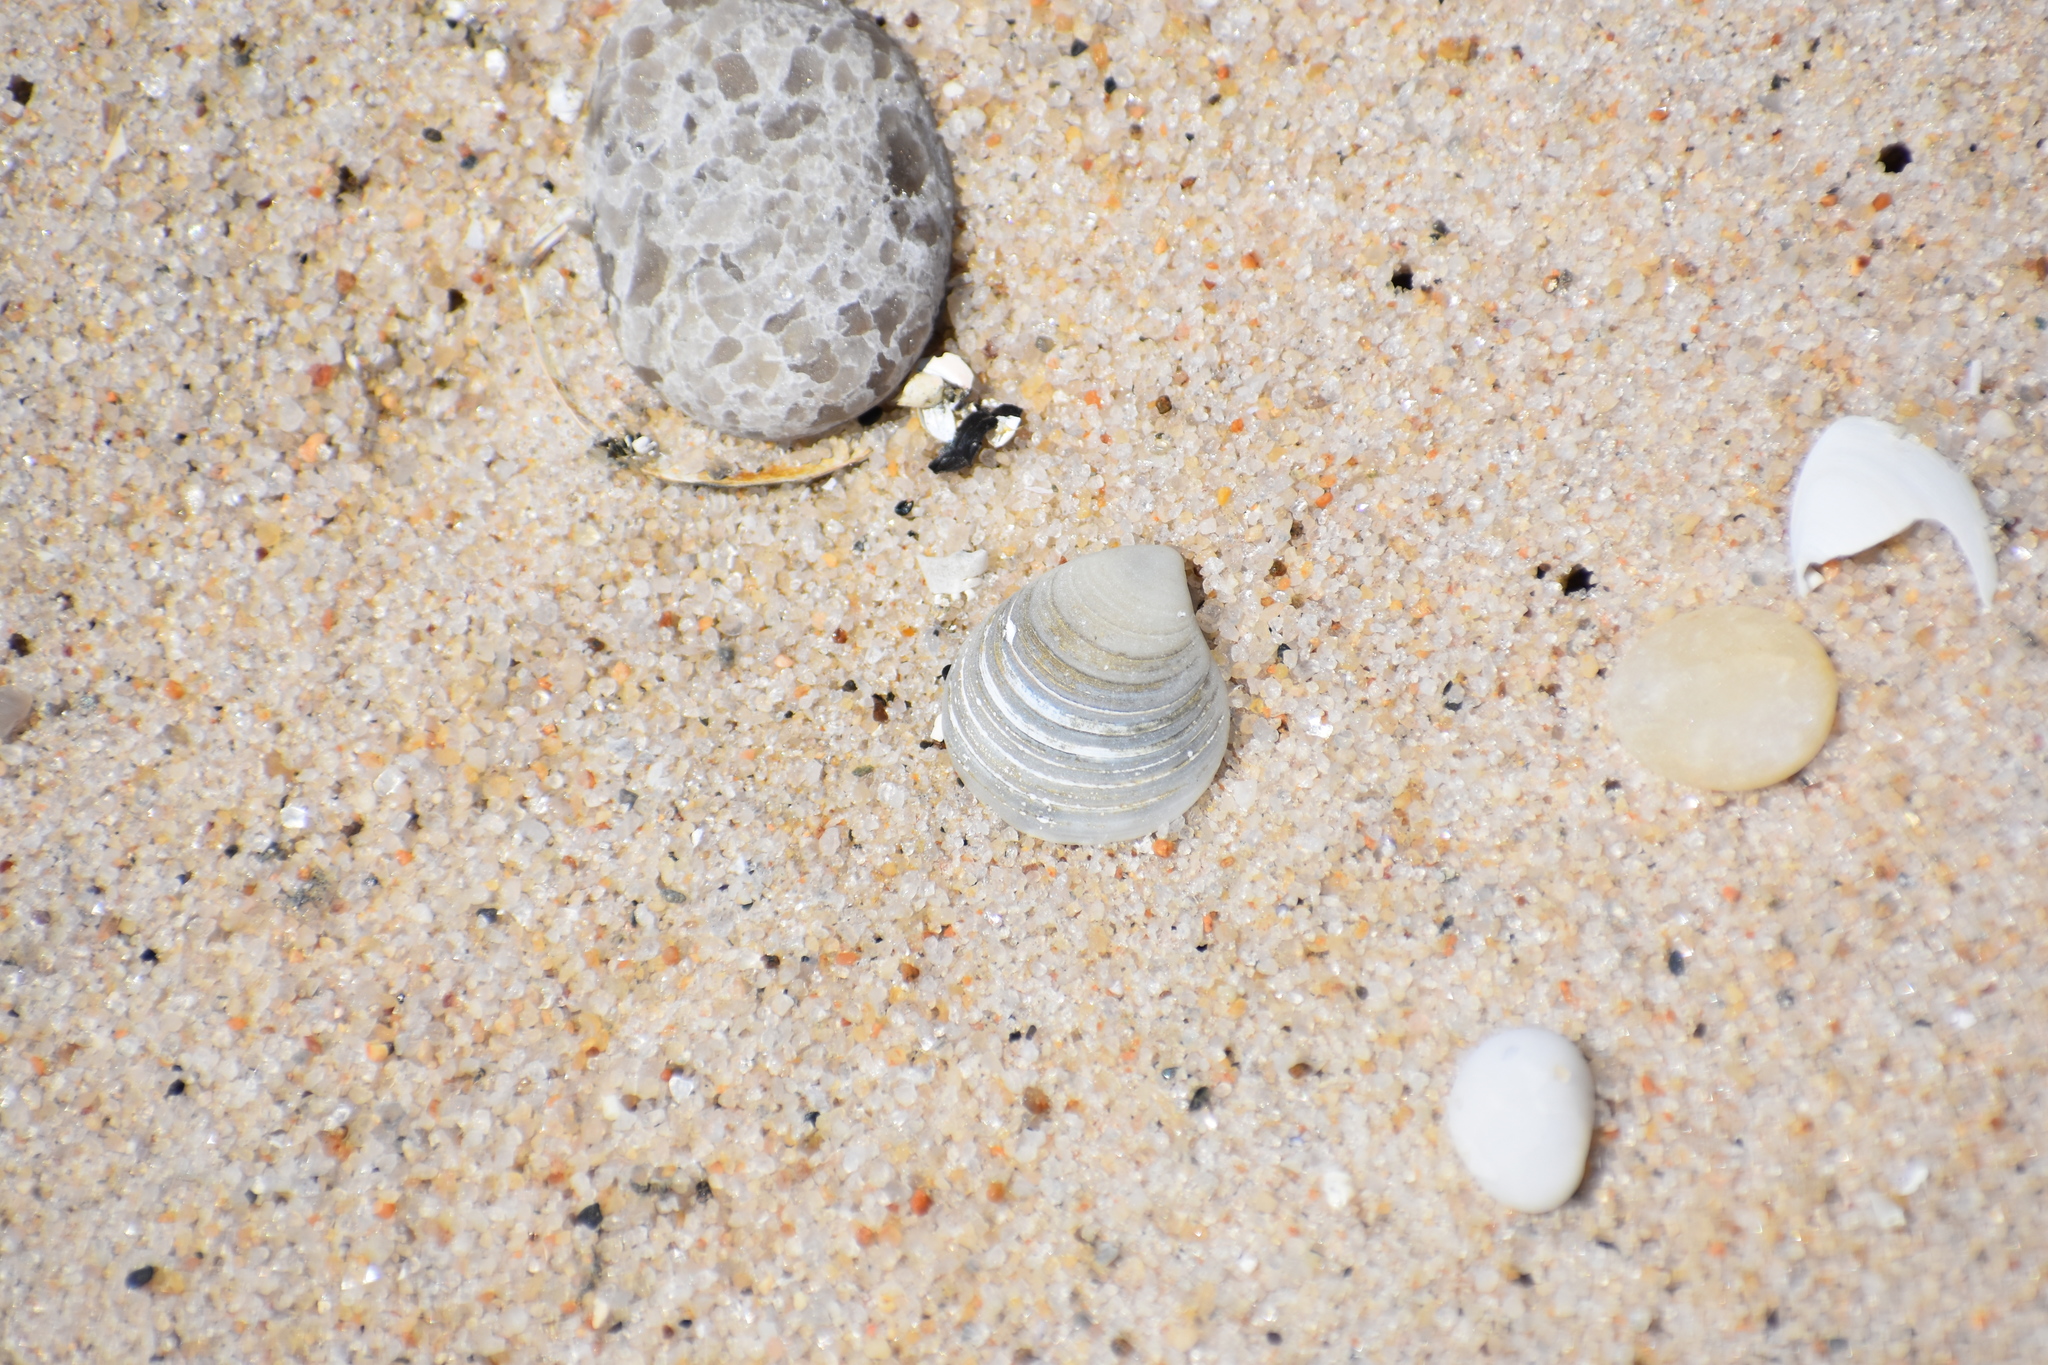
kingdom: Animalia
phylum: Mollusca
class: Bivalvia
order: Cardiida
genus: Isocrassina
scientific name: Isocrassina
